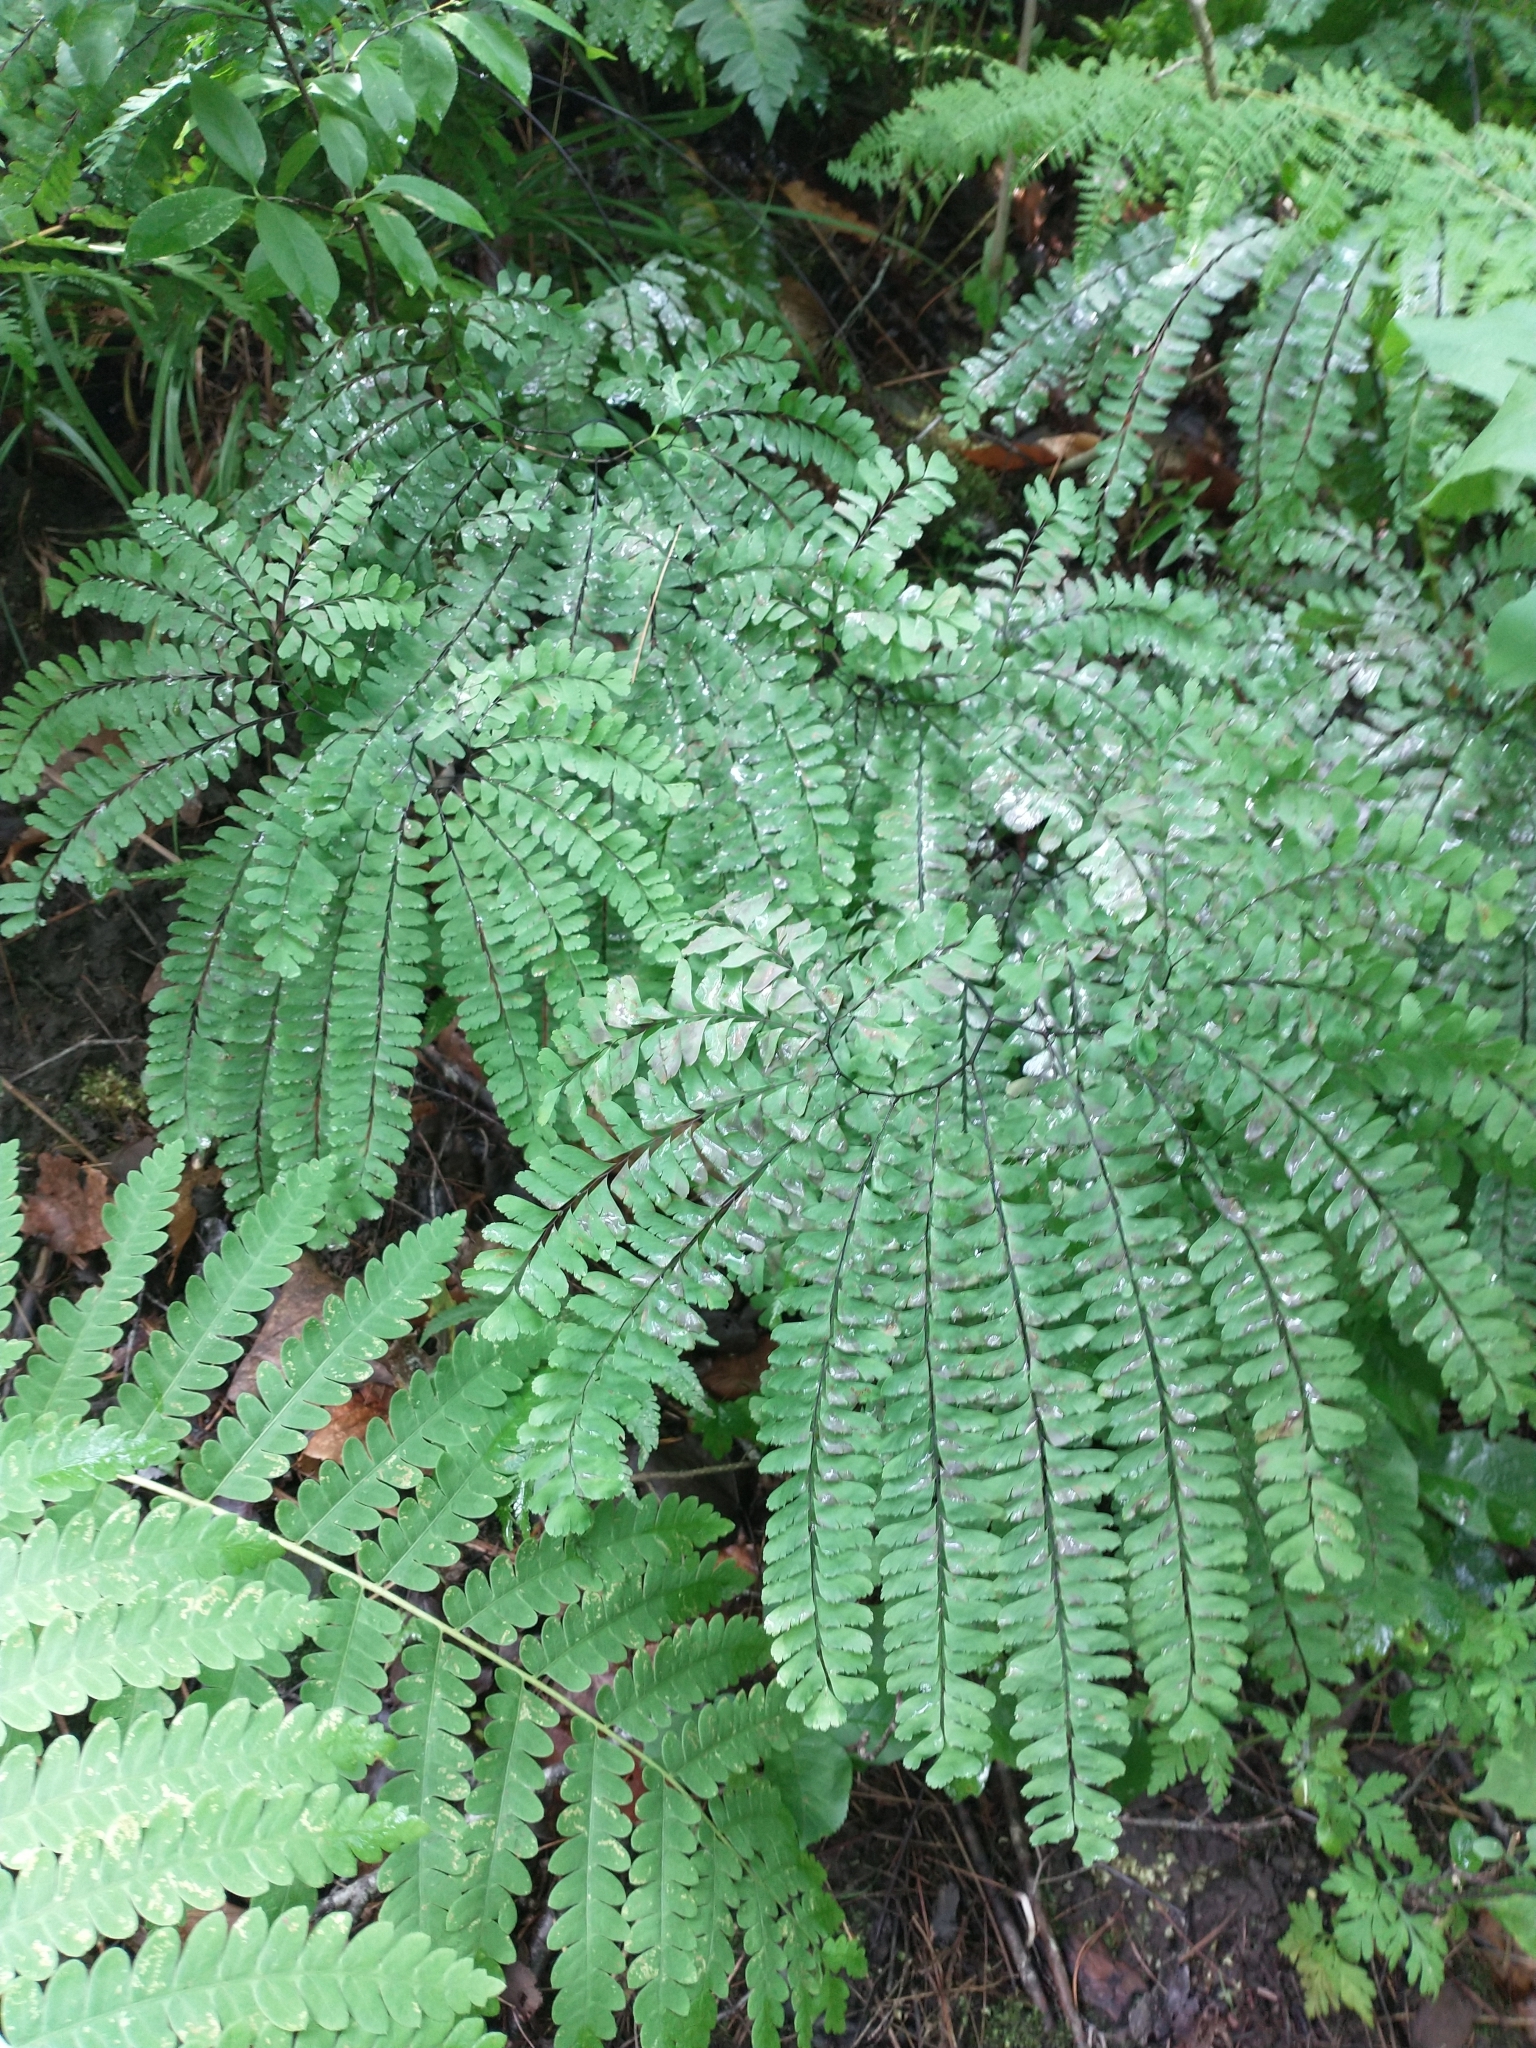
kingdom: Plantae
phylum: Tracheophyta
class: Polypodiopsida
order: Polypodiales
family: Pteridaceae
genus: Adiantum
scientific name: Adiantum pedatum
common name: Five-finger fern
